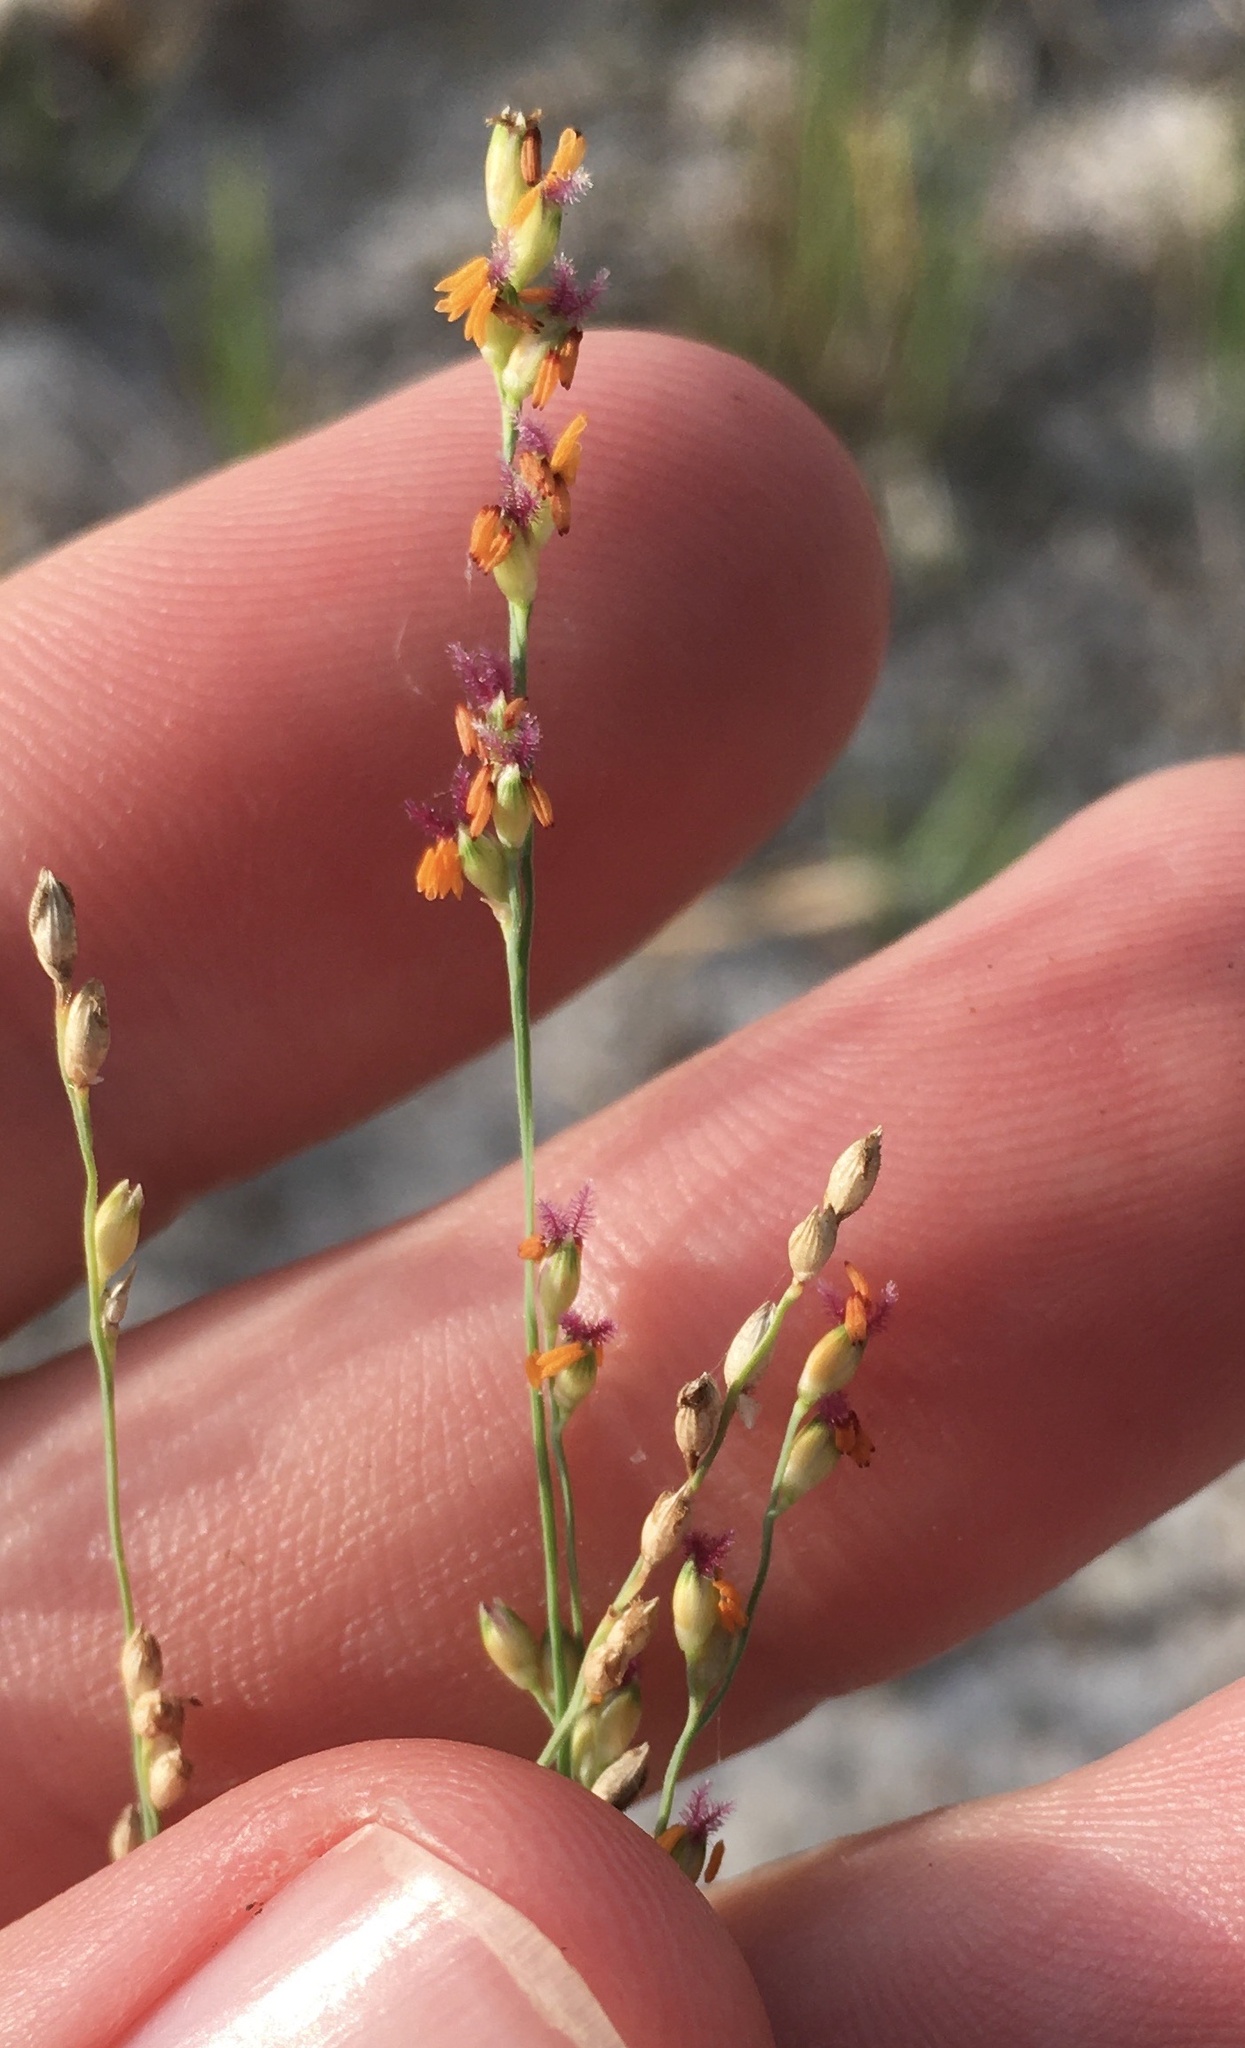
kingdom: Plantae
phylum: Tracheophyta
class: Liliopsida
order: Poales
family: Poaceae
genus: Panicum
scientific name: Panicum repens
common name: Torpedo grass
